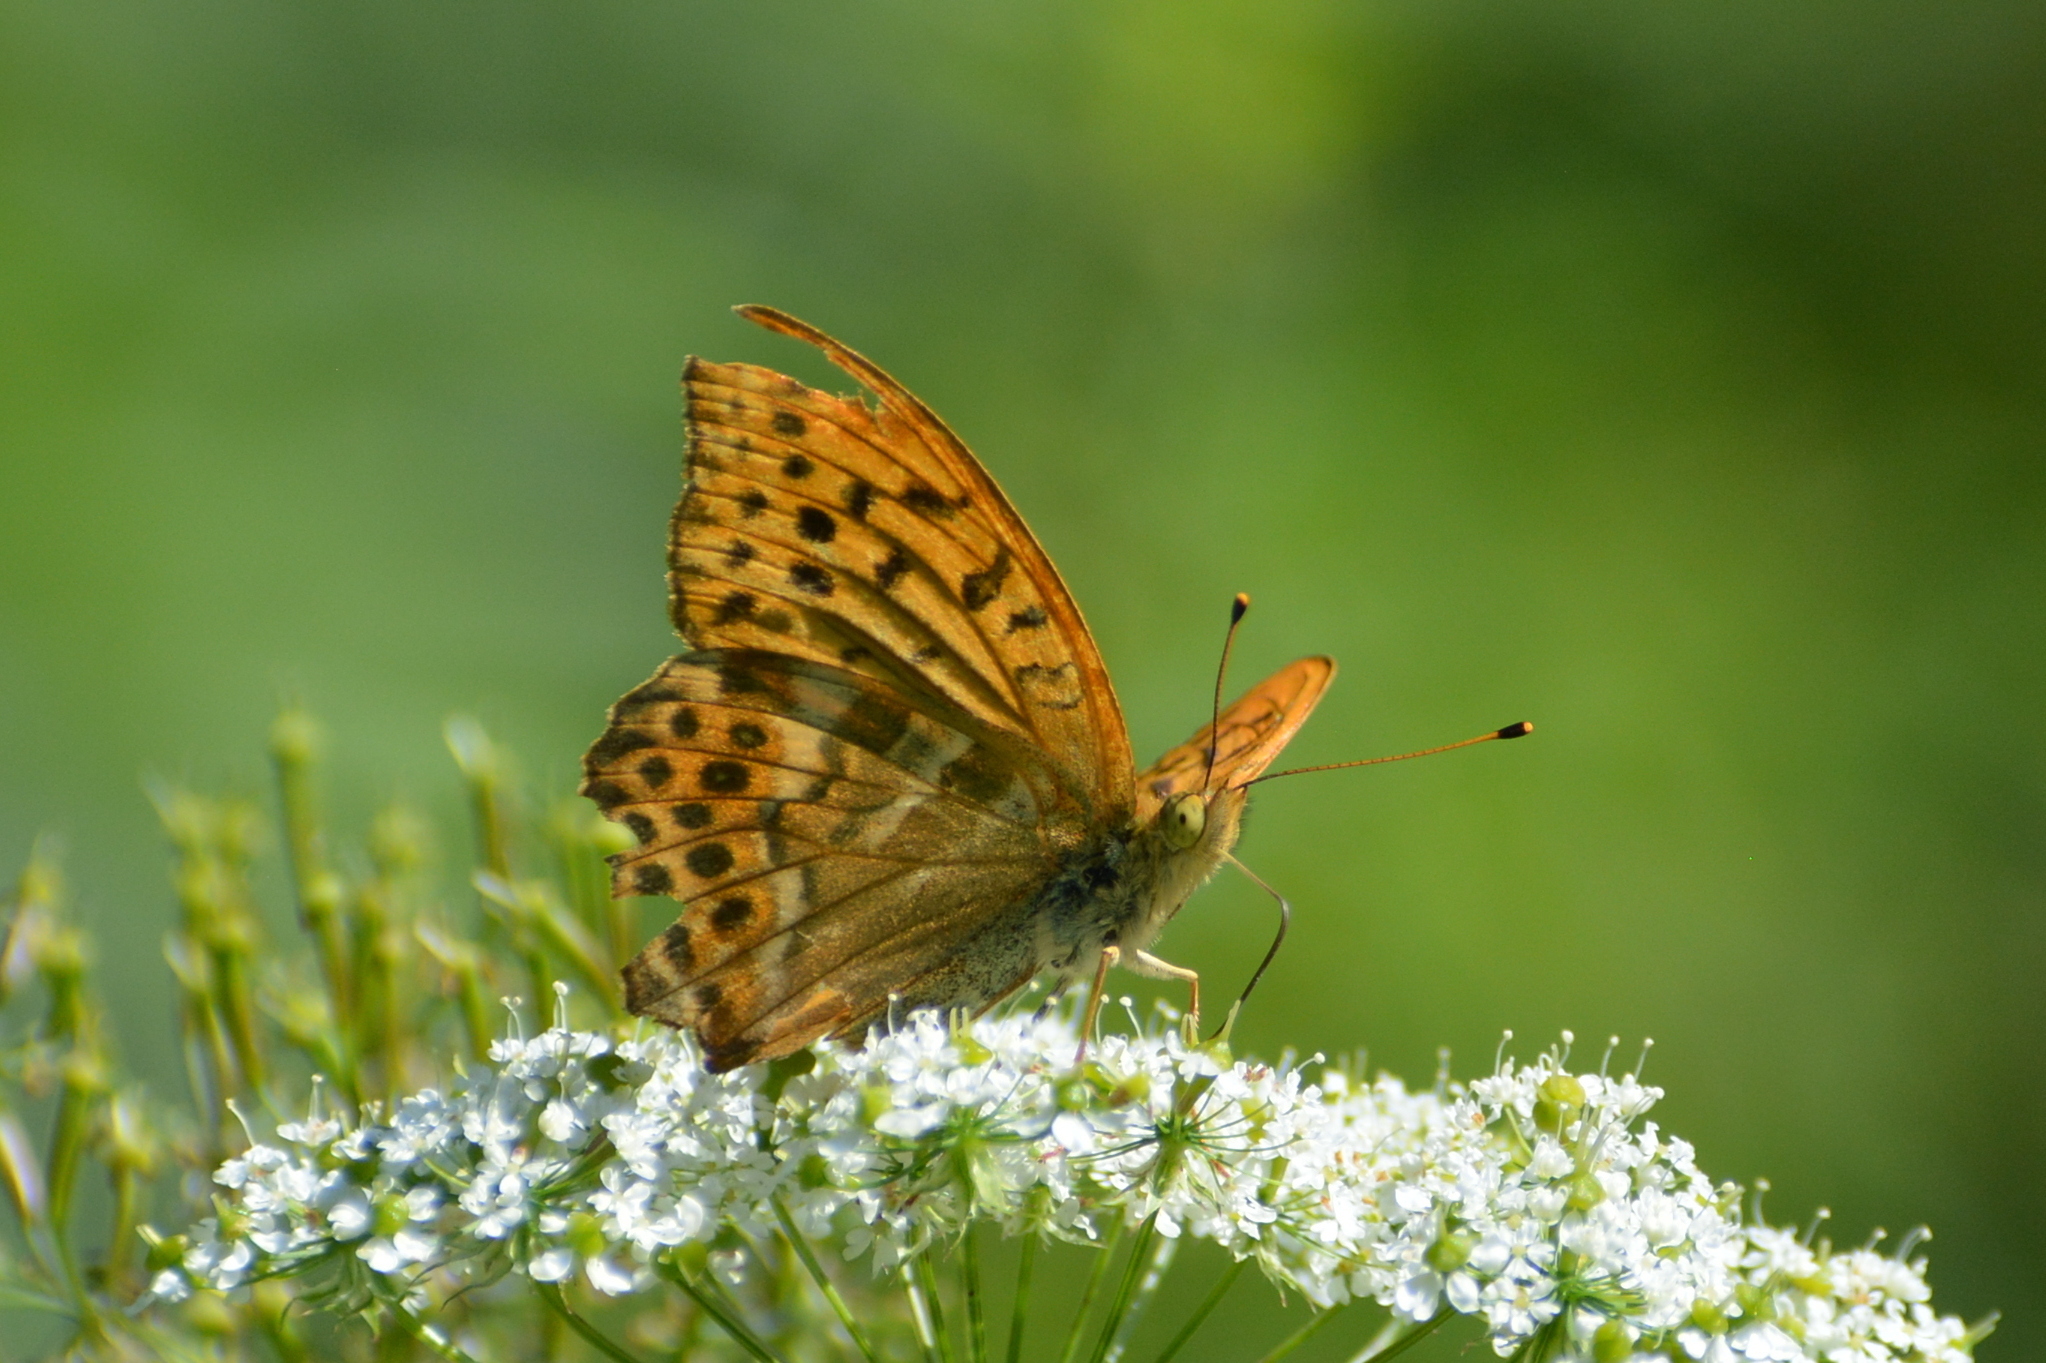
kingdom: Animalia
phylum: Arthropoda
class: Insecta
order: Lepidoptera
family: Nymphalidae
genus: Argynnis
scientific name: Argynnis paphia
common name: Silver-washed fritillary
